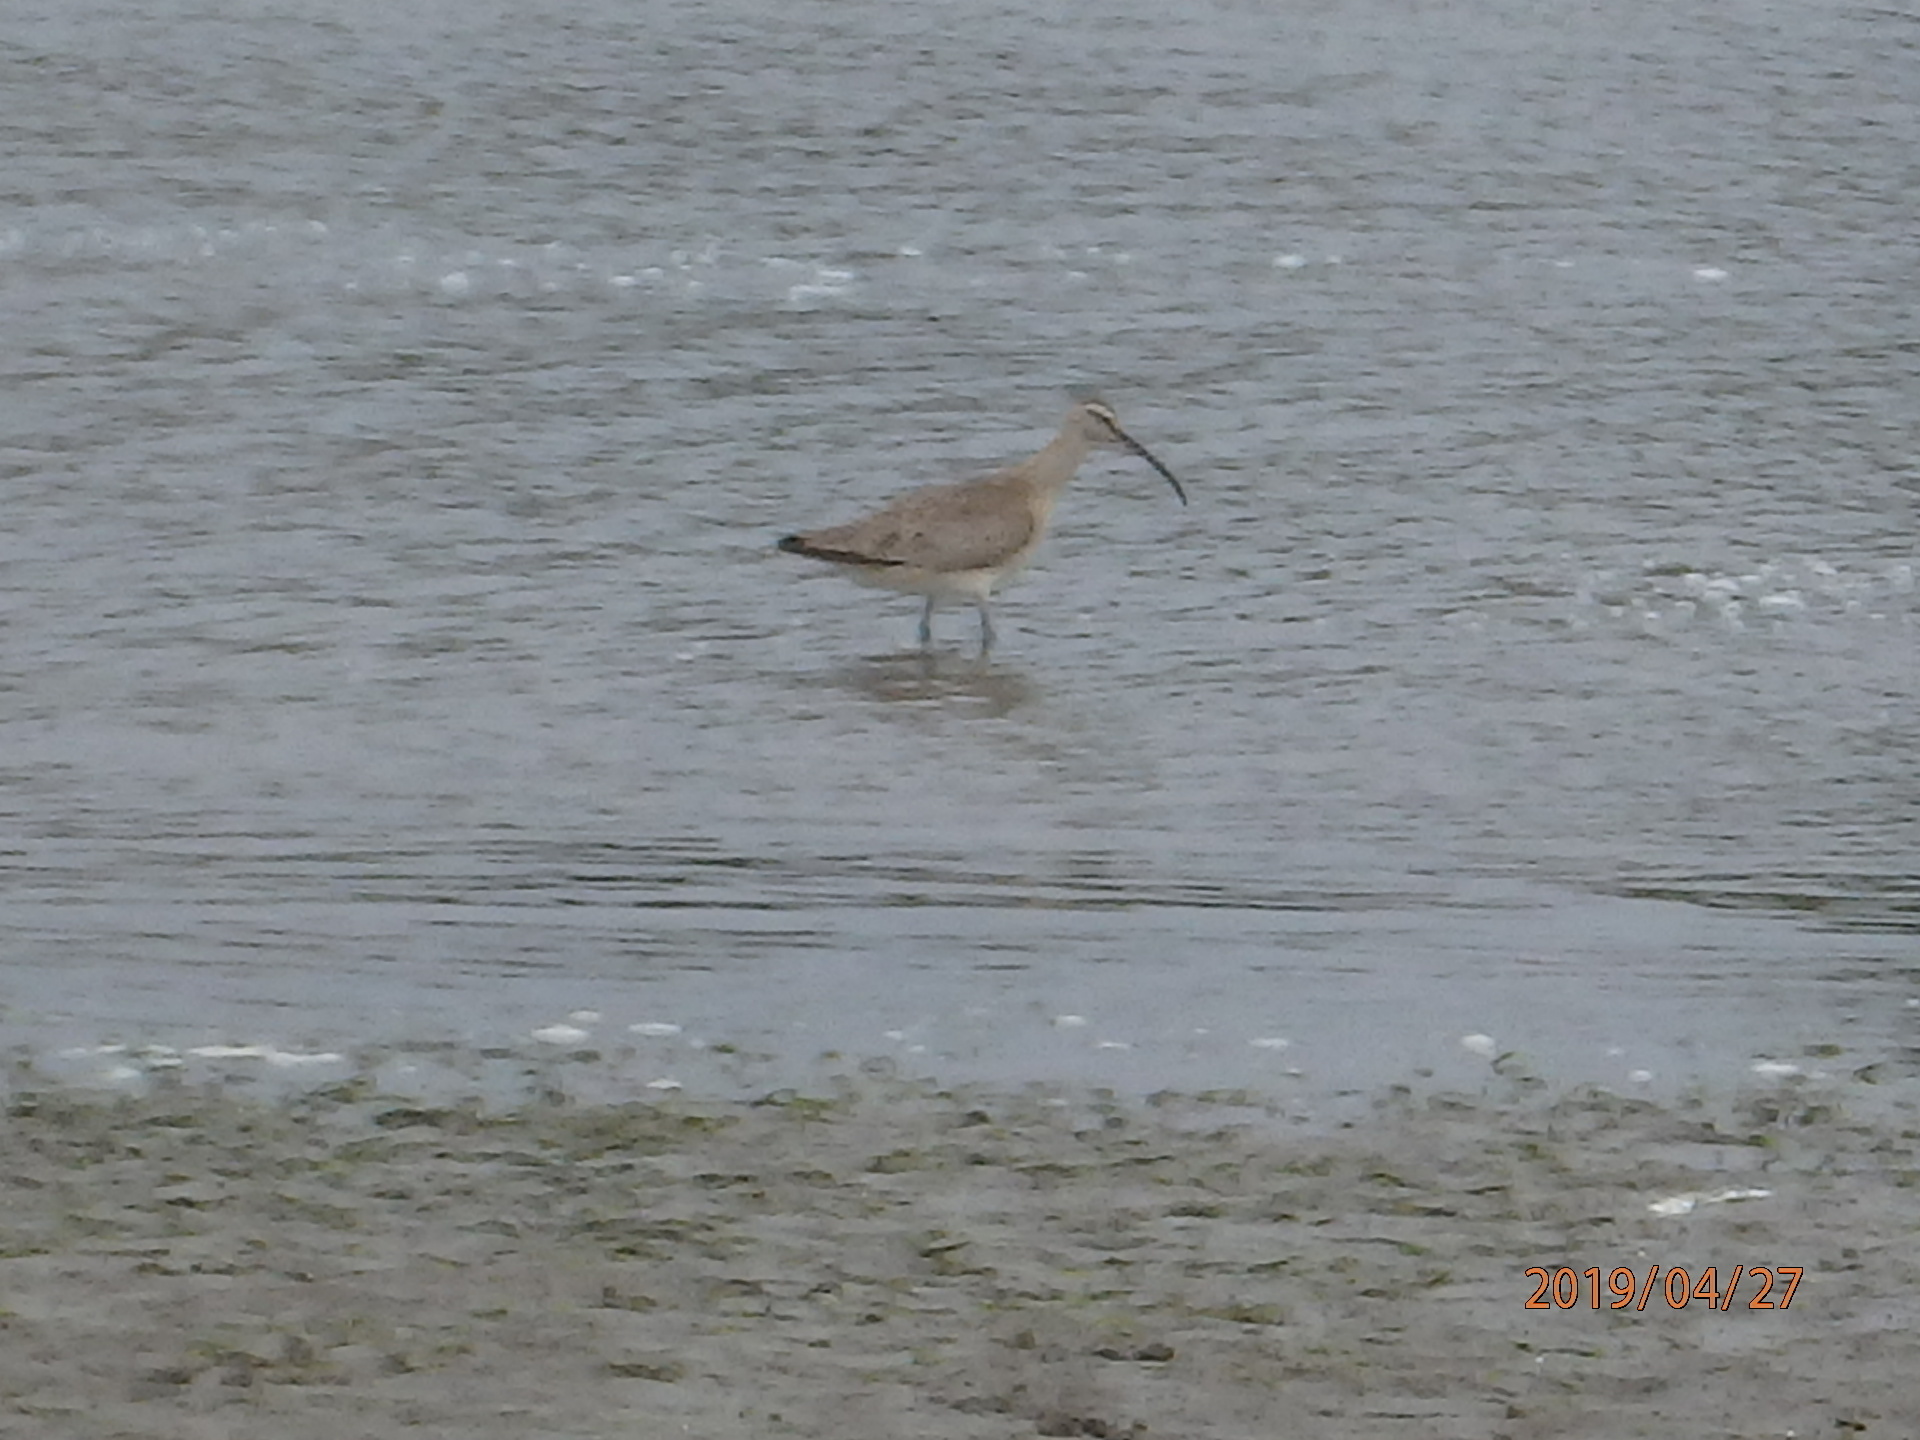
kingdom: Animalia
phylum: Chordata
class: Aves
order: Charadriiformes
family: Scolopacidae
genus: Numenius
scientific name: Numenius phaeopus
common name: Whimbrel
